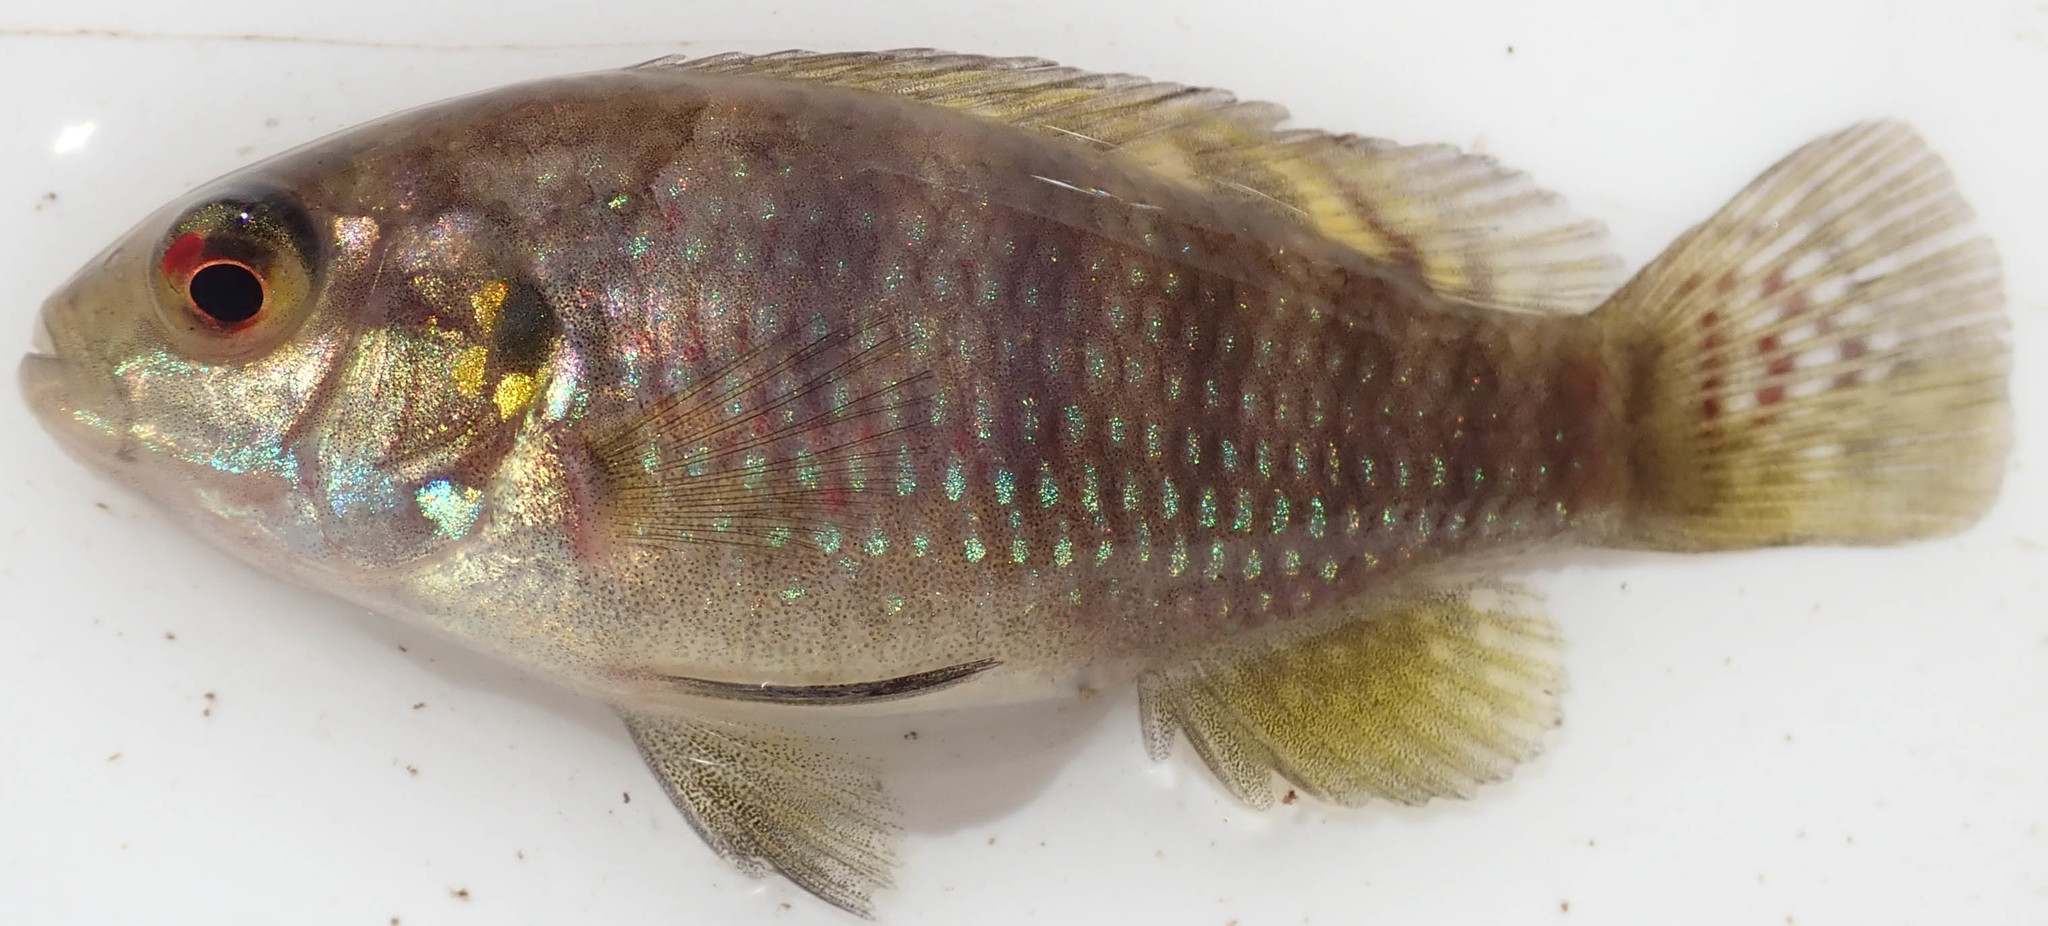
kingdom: Animalia
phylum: Chordata
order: Perciformes
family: Cichlidae
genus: Tilapia
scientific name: Tilapia sparrmanii
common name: Banded tilapia
